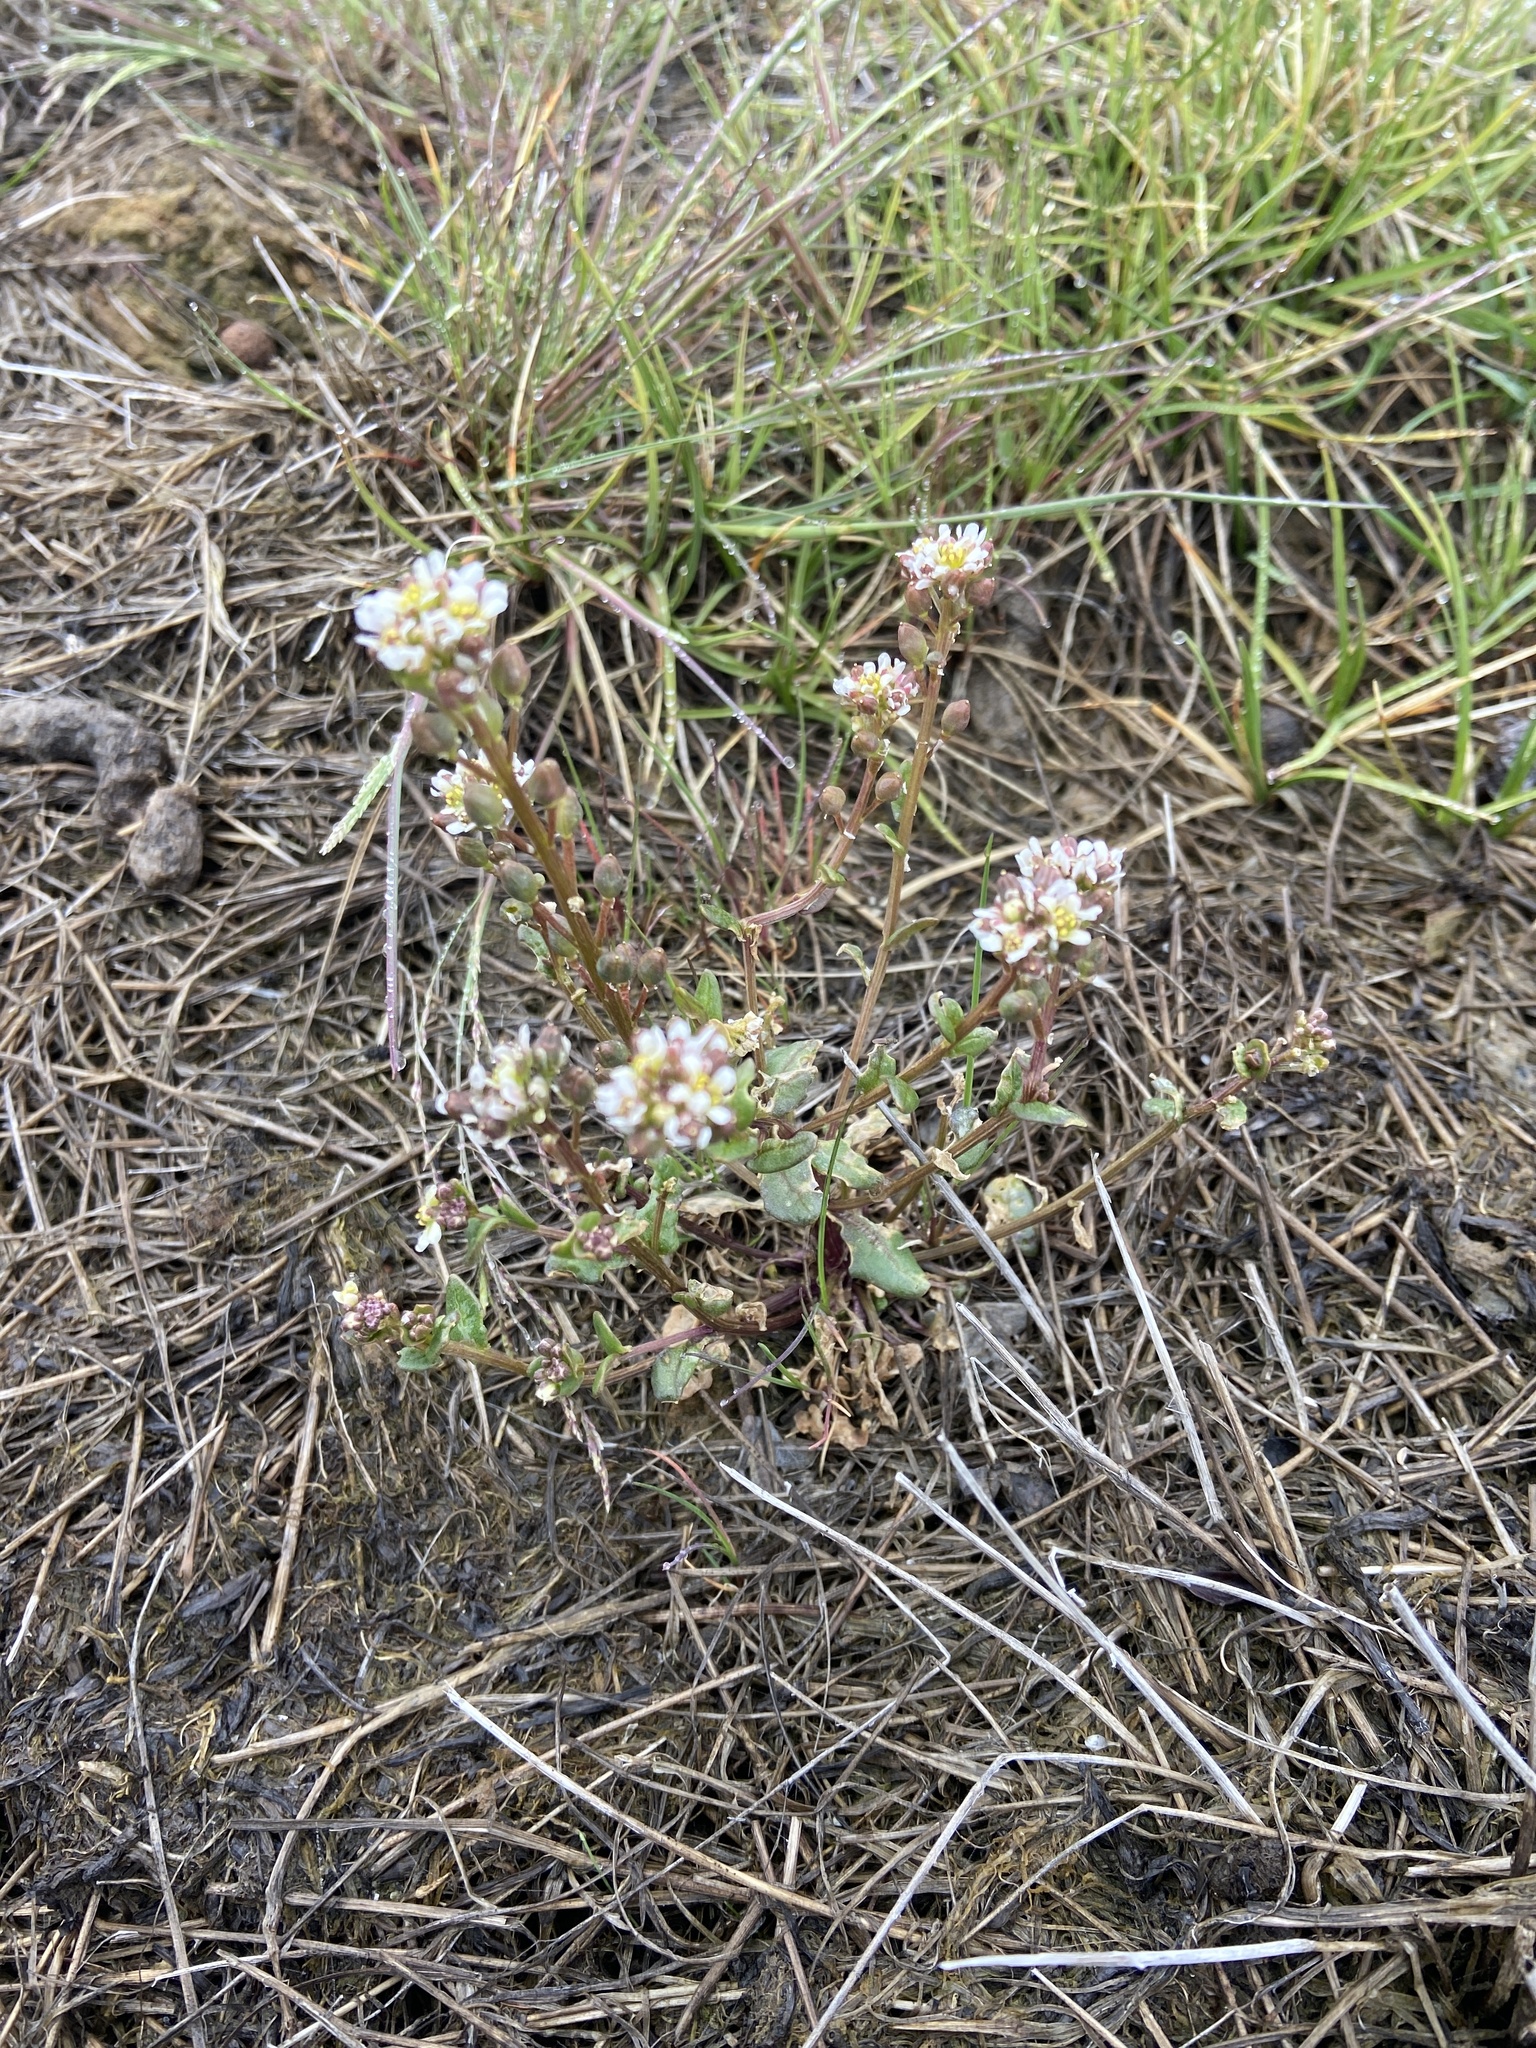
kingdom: Plantae
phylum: Tracheophyta
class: Magnoliopsida
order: Brassicales
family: Brassicaceae
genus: Cochlearia
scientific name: Cochlearia officinalis
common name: Scurvy-grass
